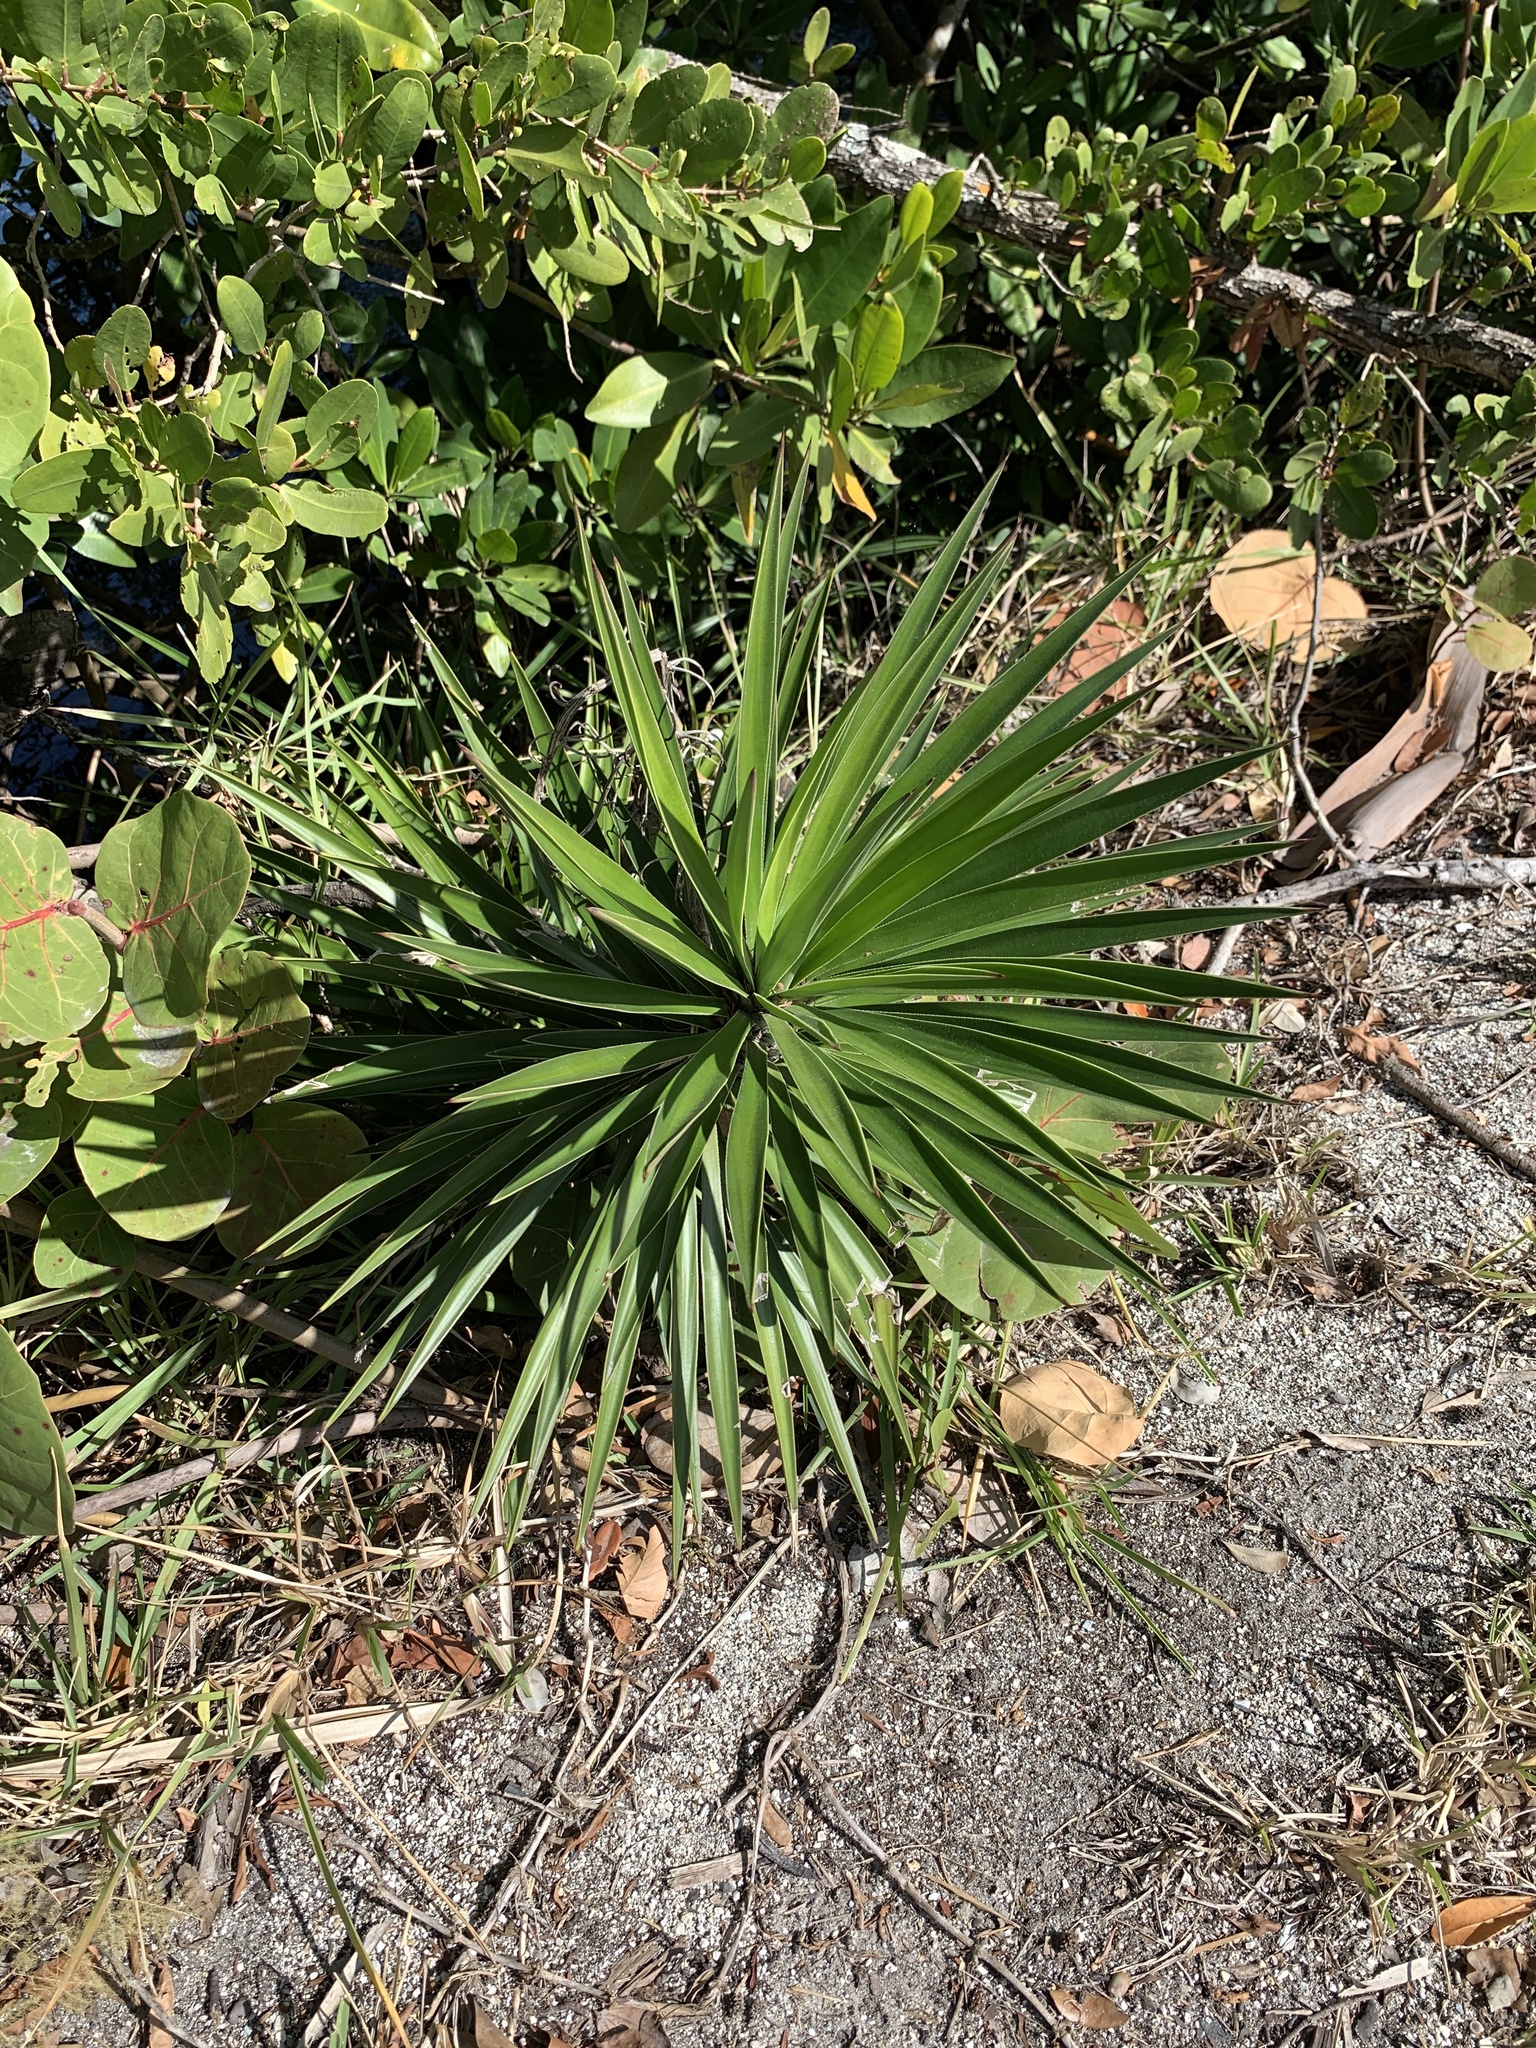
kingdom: Plantae
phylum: Tracheophyta
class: Liliopsida
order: Asparagales
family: Asparagaceae
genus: Yucca
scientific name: Yucca aloifolia
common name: Aloe yucca
